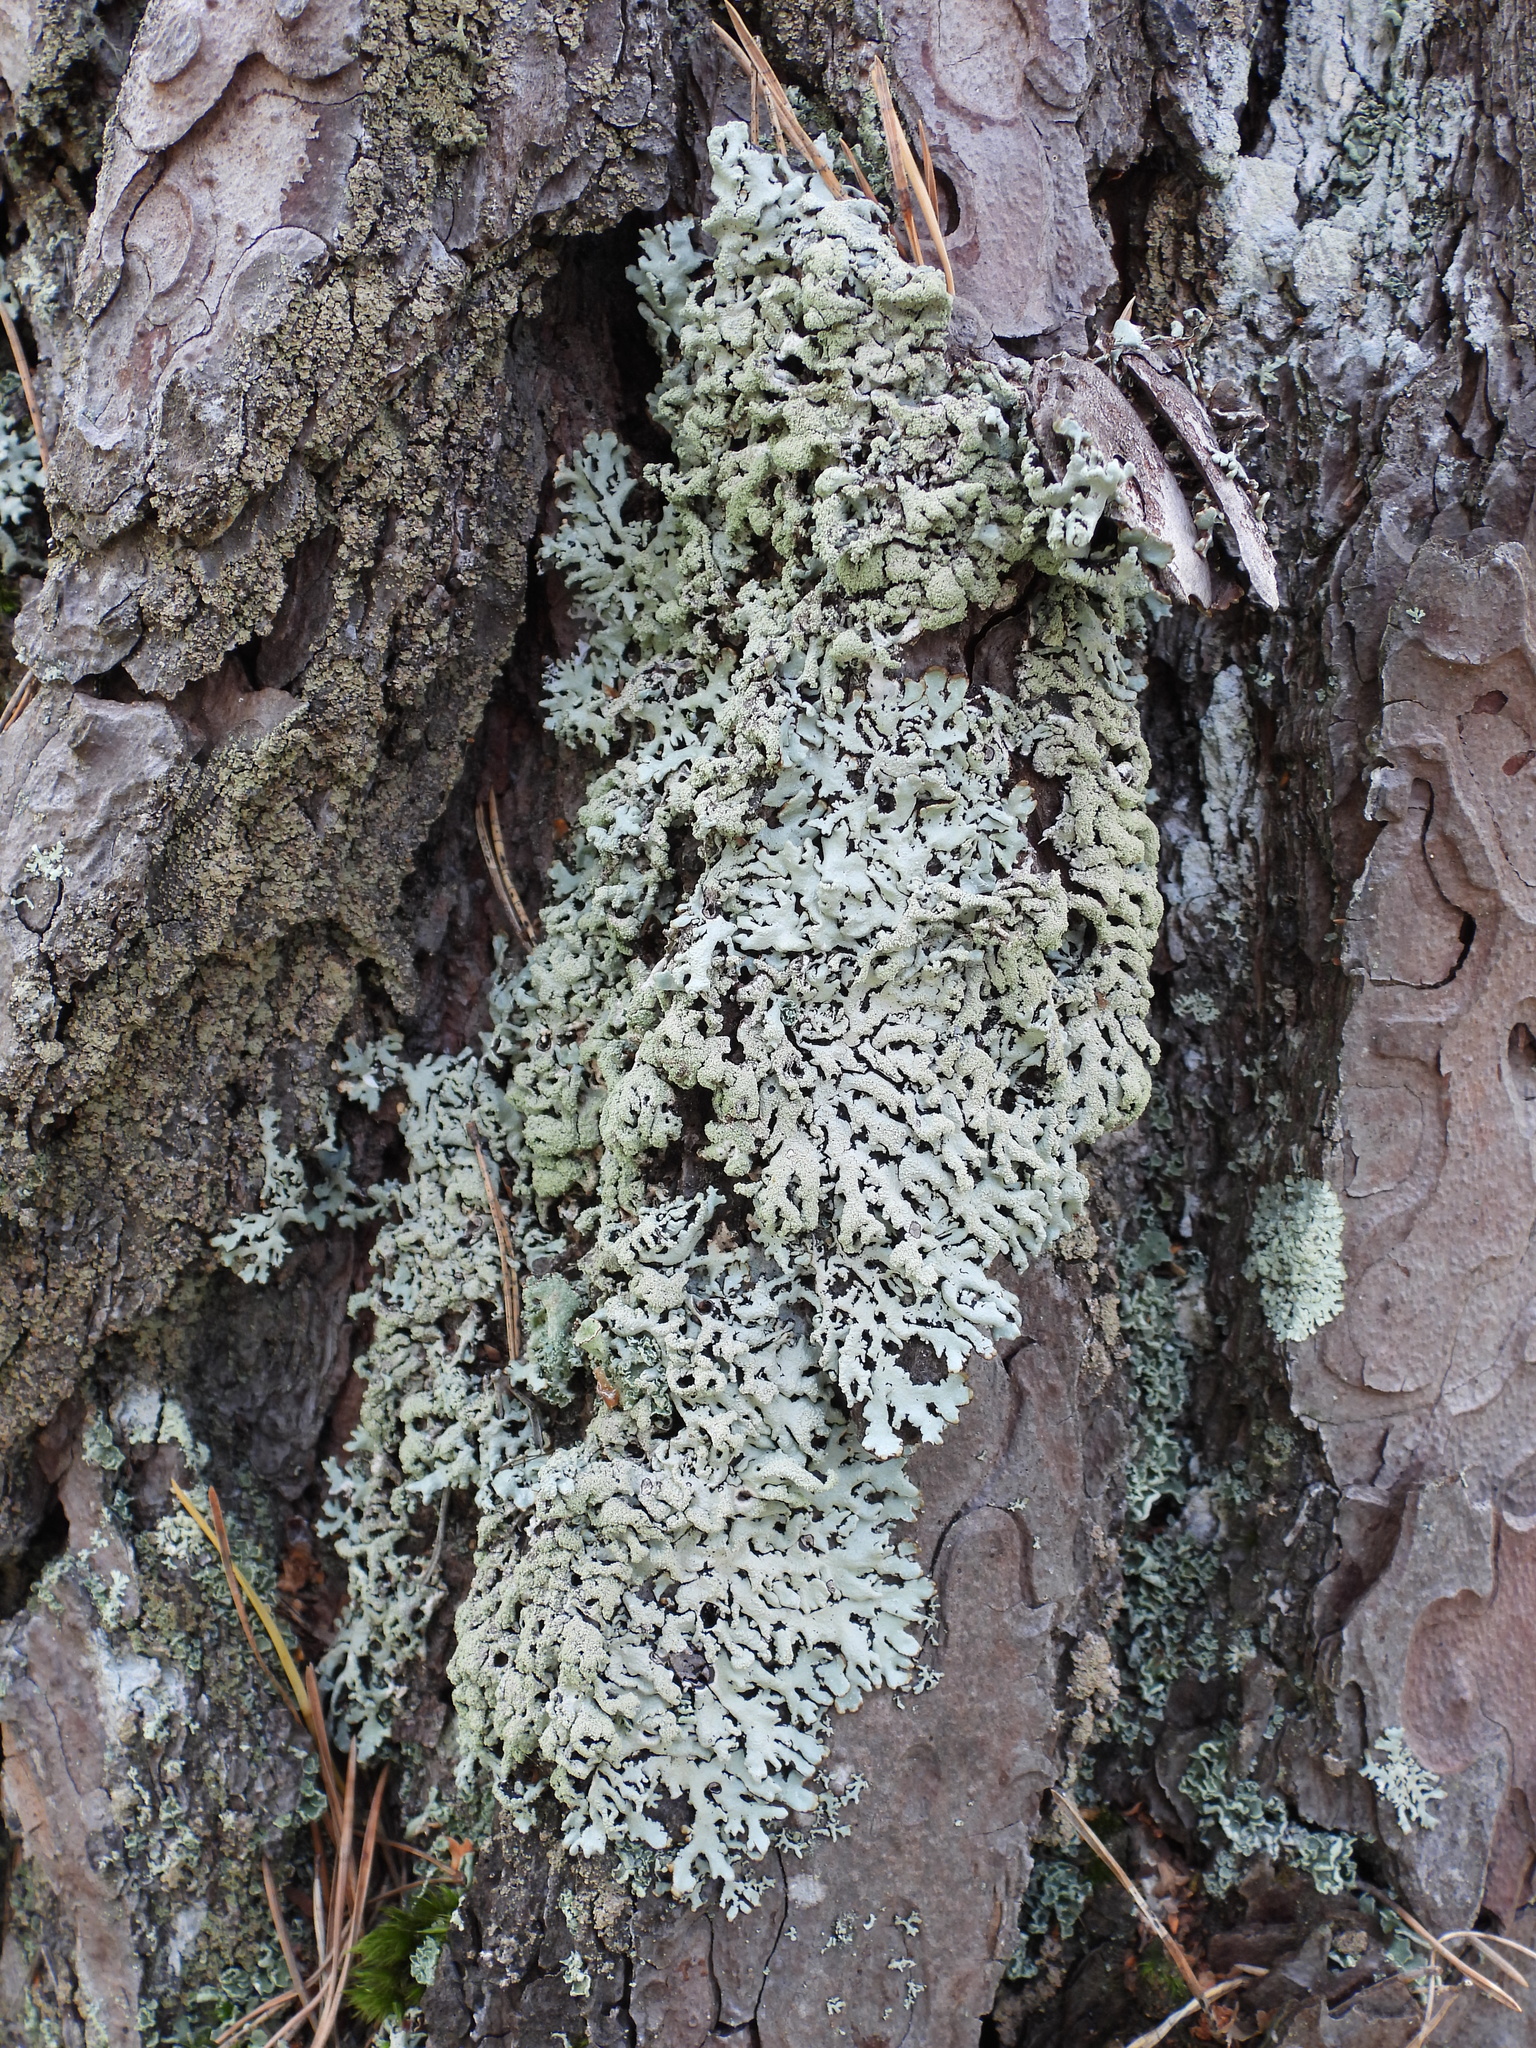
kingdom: Fungi
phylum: Ascomycota
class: Lecanoromycetes
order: Lecanorales
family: Parmeliaceae
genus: Hypogymnia
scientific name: Hypogymnia farinacea
